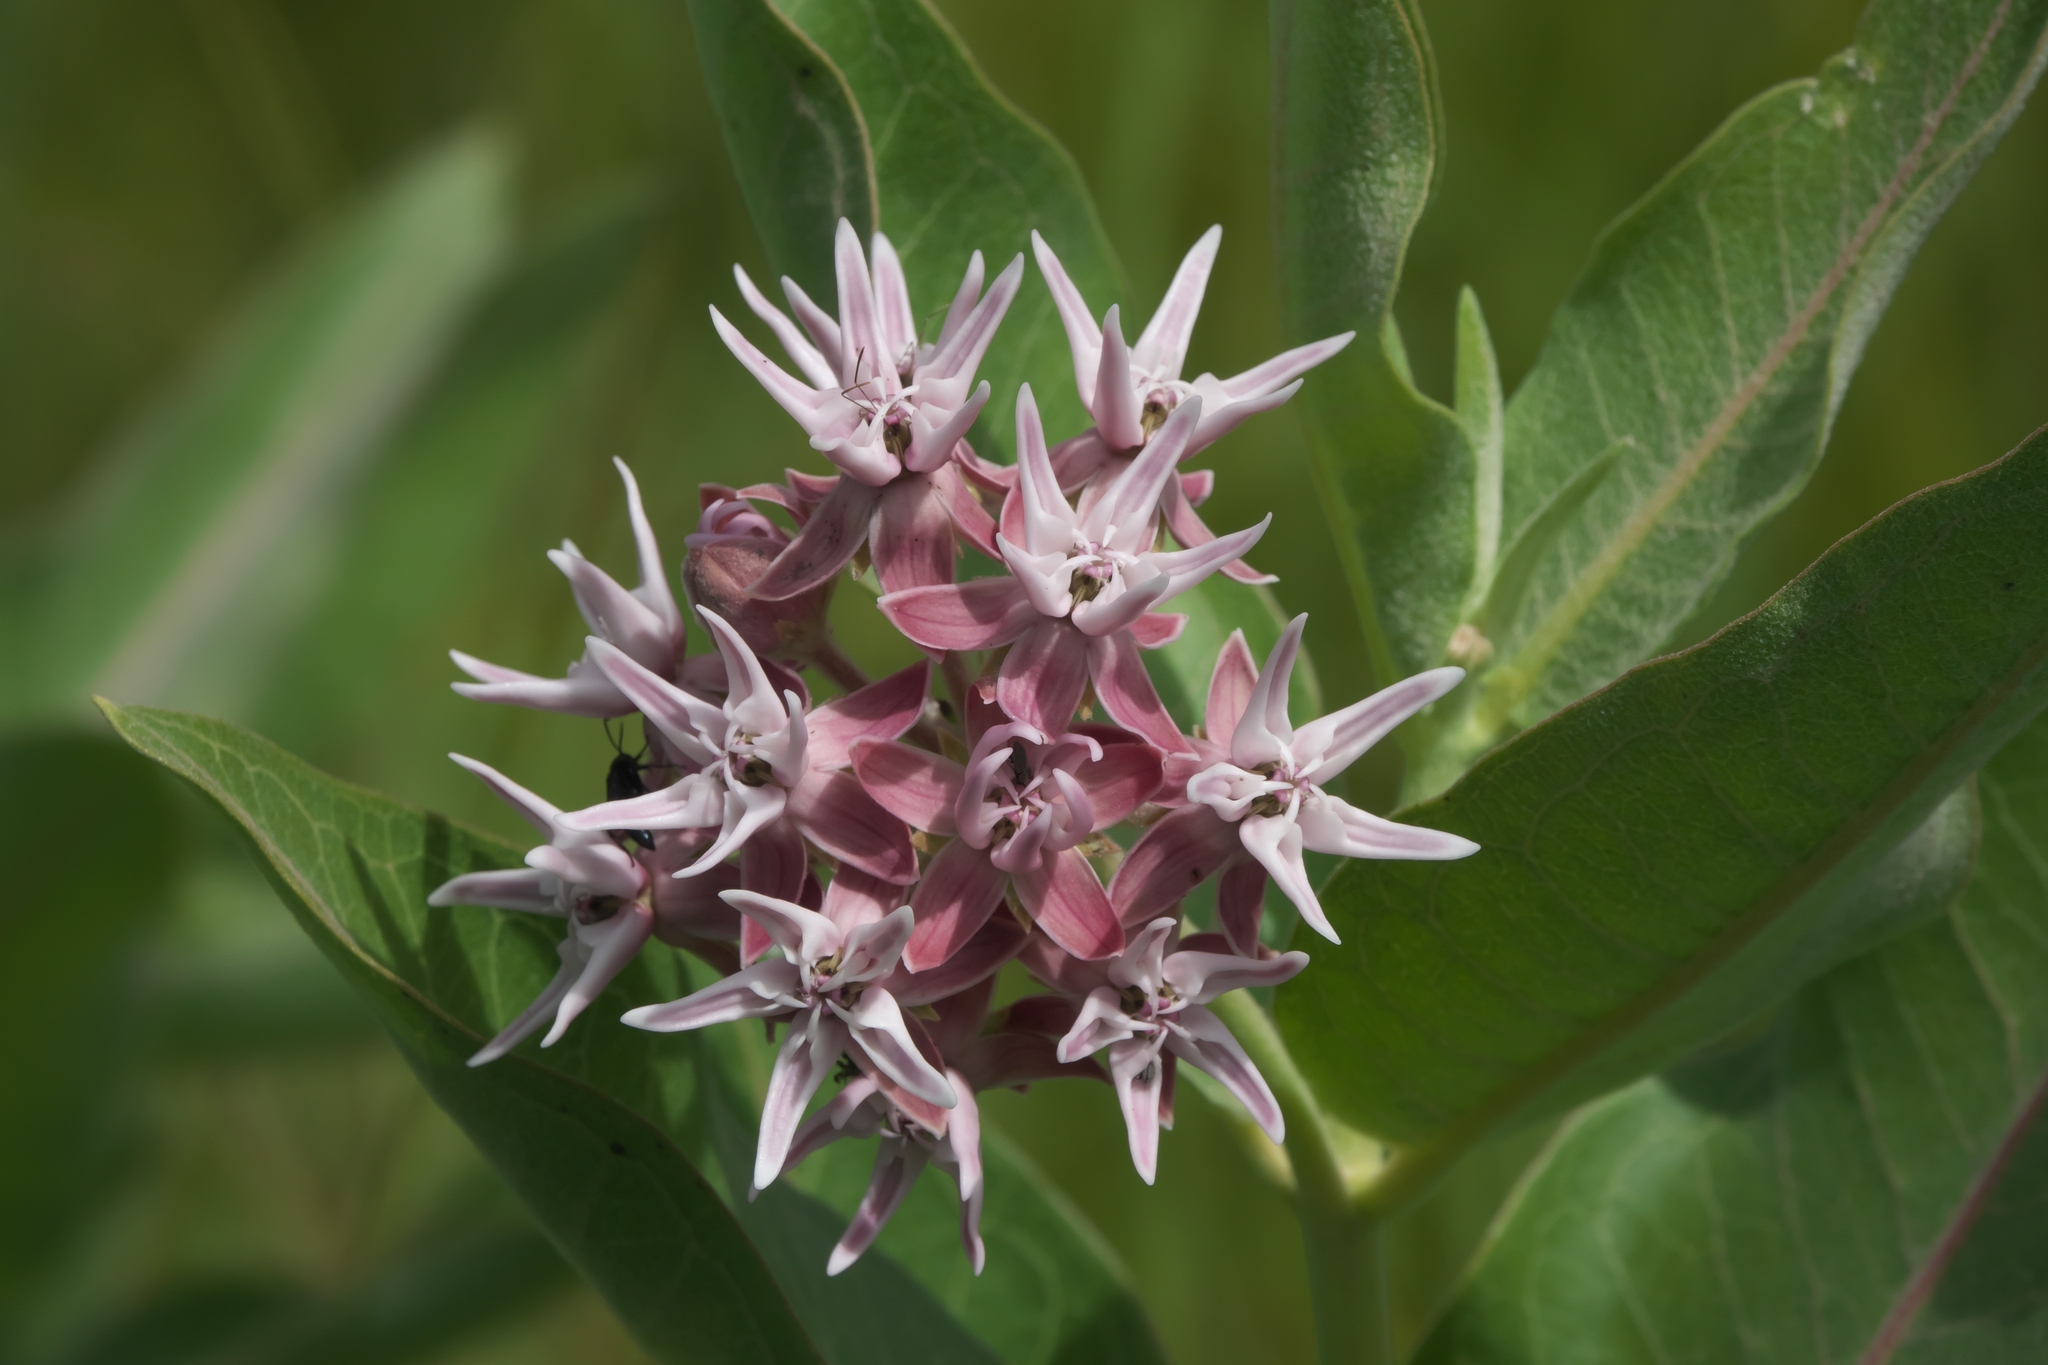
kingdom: Plantae
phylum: Tracheophyta
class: Magnoliopsida
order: Gentianales
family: Apocynaceae
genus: Asclepias
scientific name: Asclepias speciosa
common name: Showy milkweed
